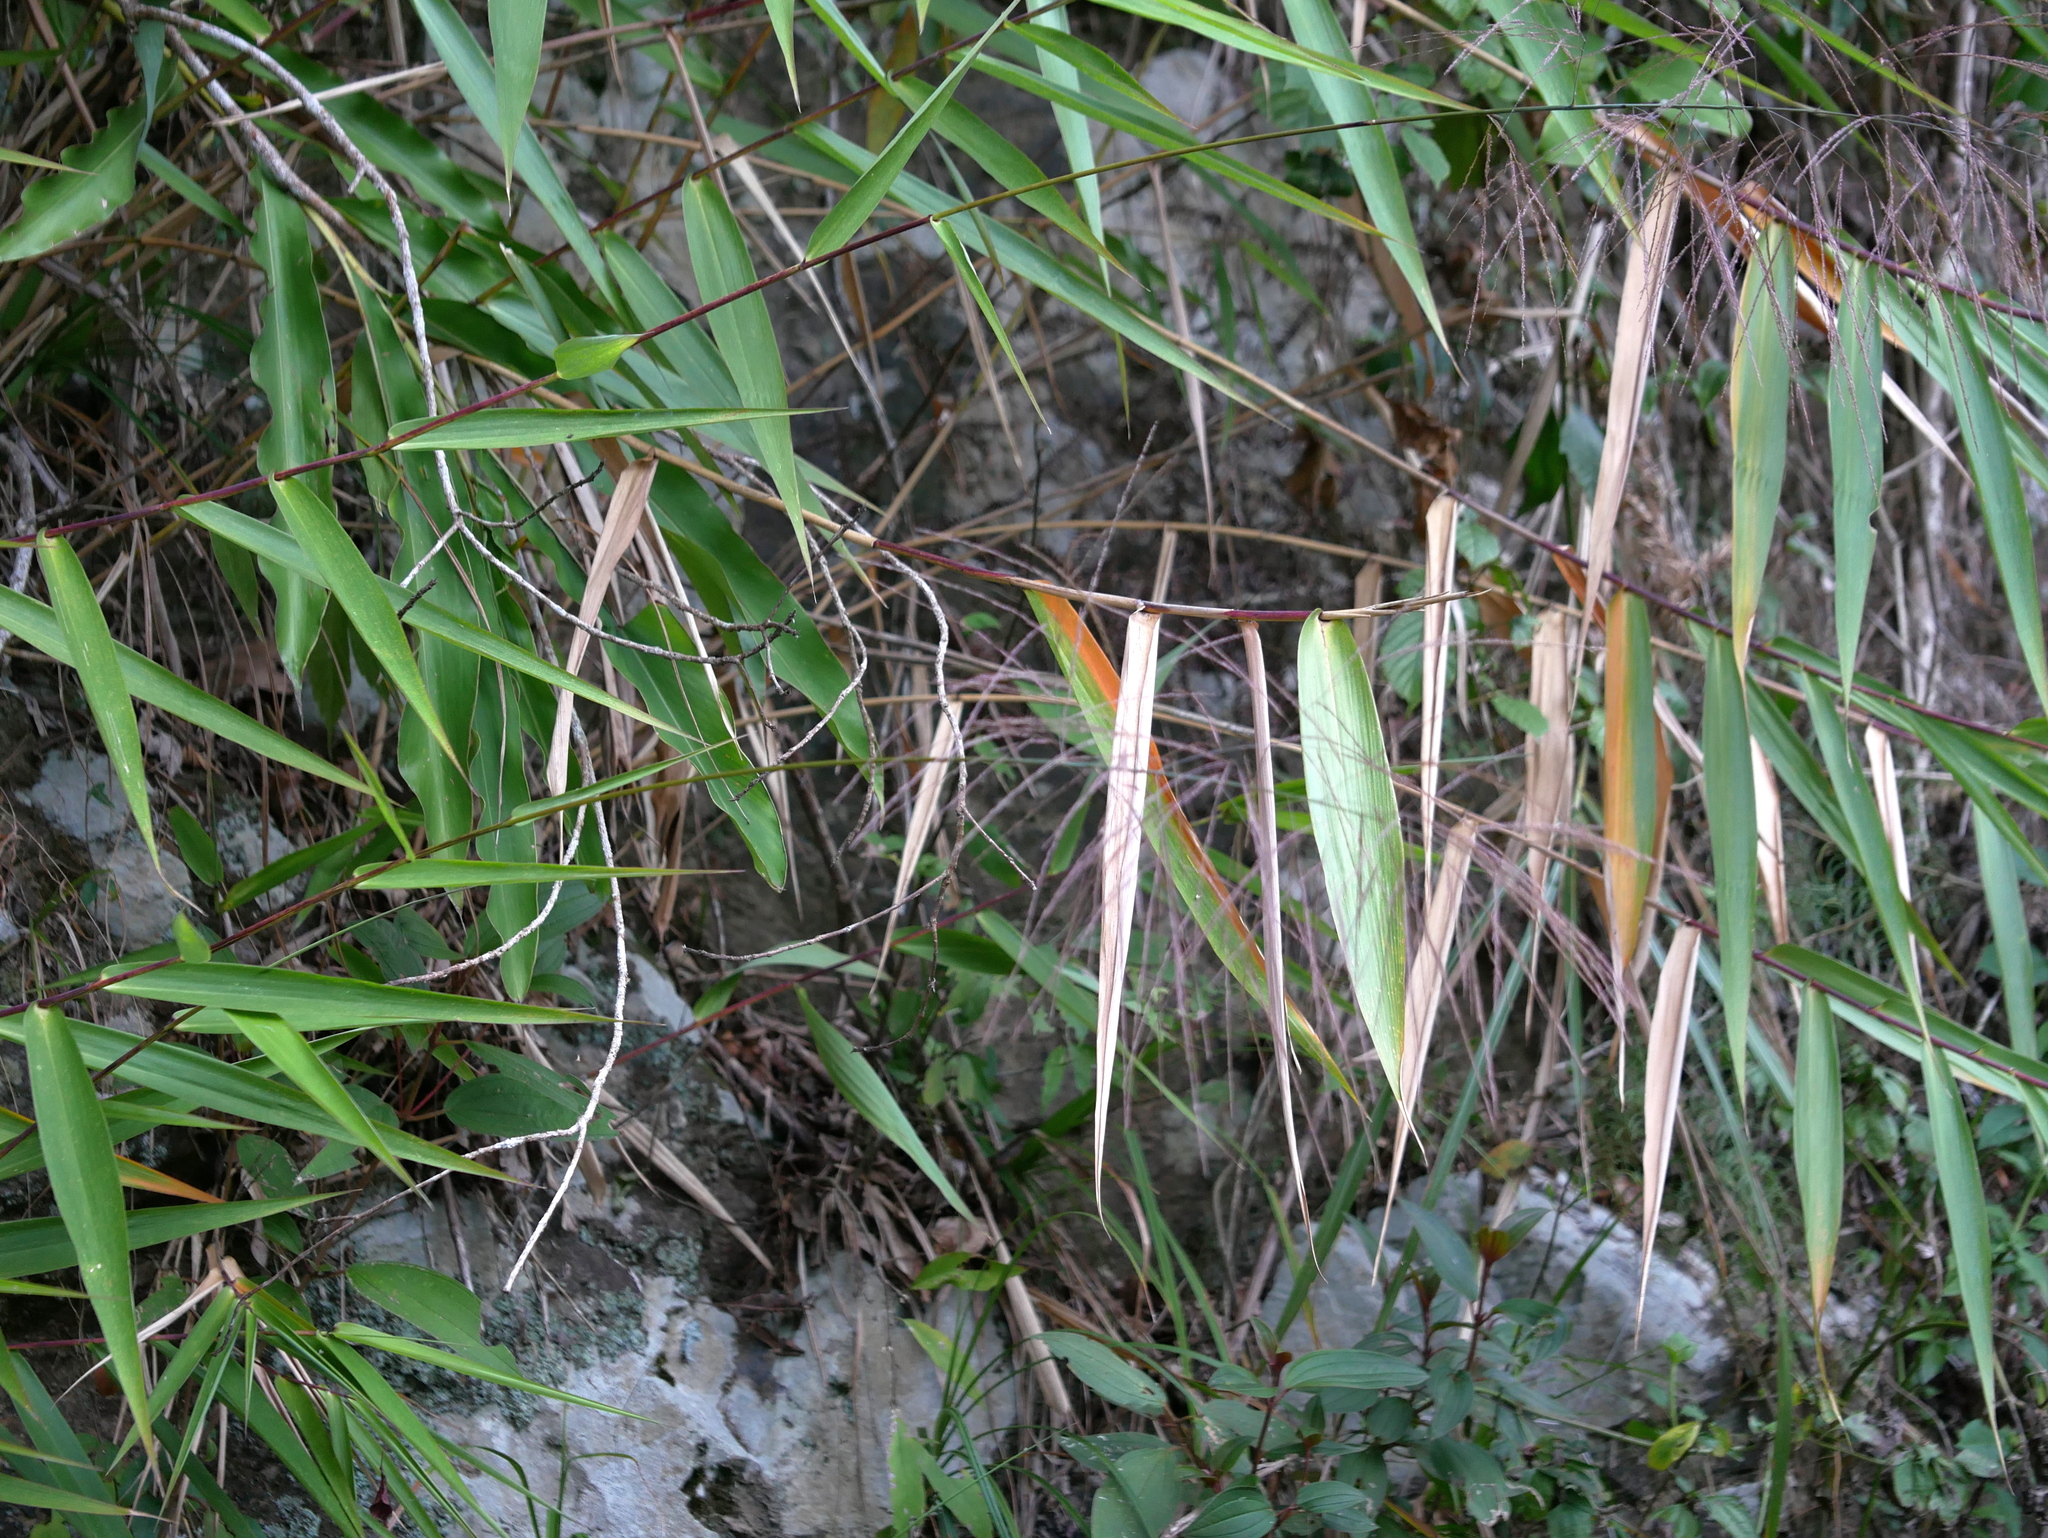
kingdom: Plantae
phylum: Tracheophyta
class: Liliopsida
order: Poales
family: Poaceae
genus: Thysanolaena
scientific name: Thysanolaena latifolia
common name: Tiger grass
